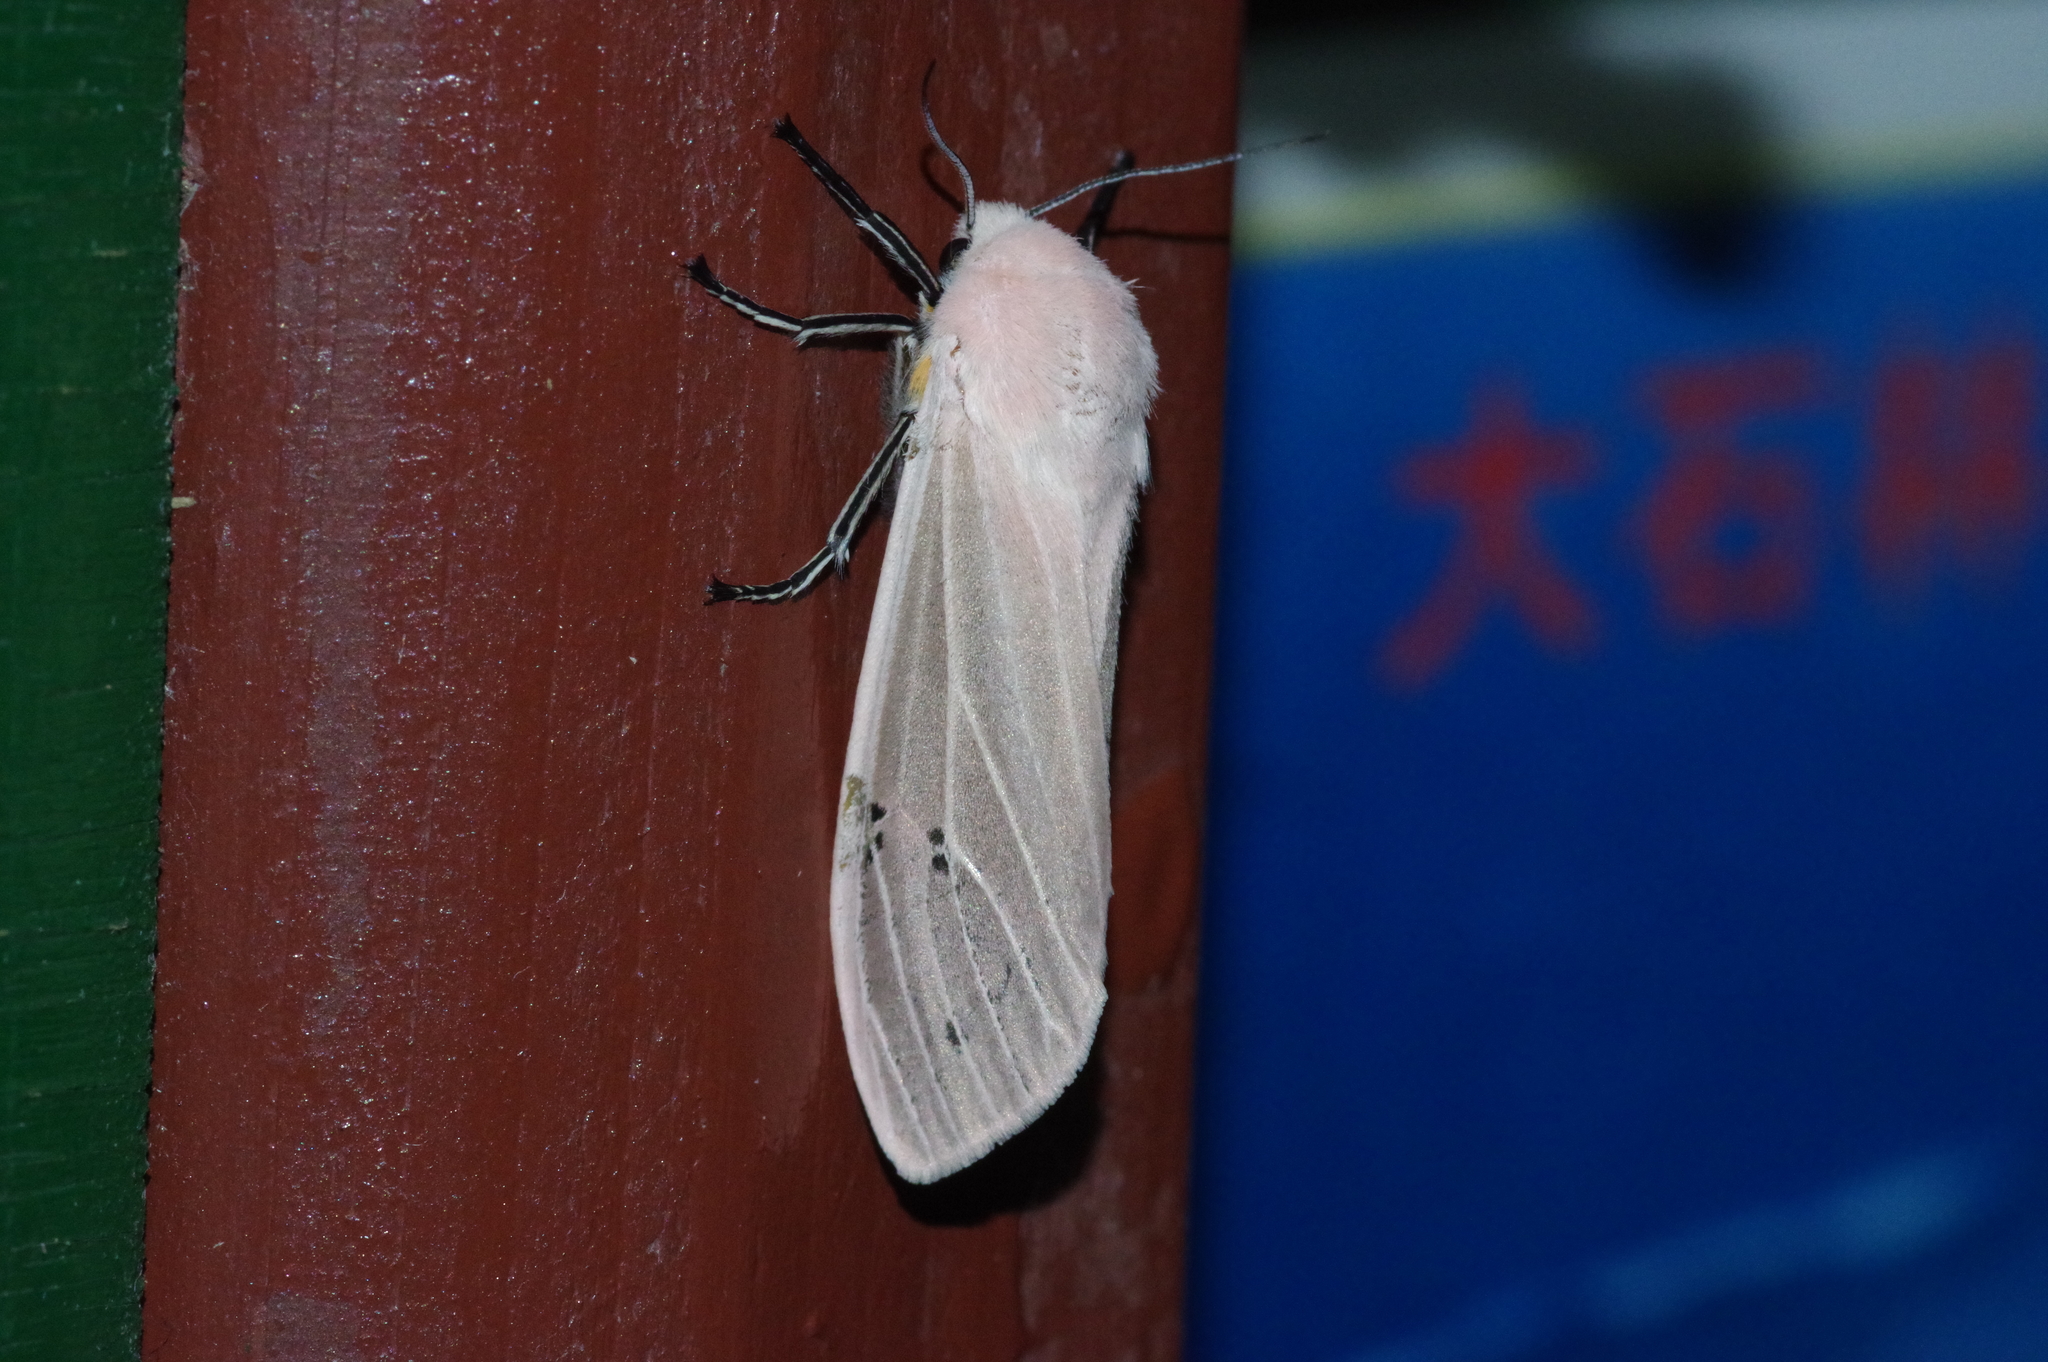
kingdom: Animalia
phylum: Arthropoda
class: Insecta
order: Lepidoptera
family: Erebidae
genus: Creatonotos
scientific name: Creatonotos transiens
